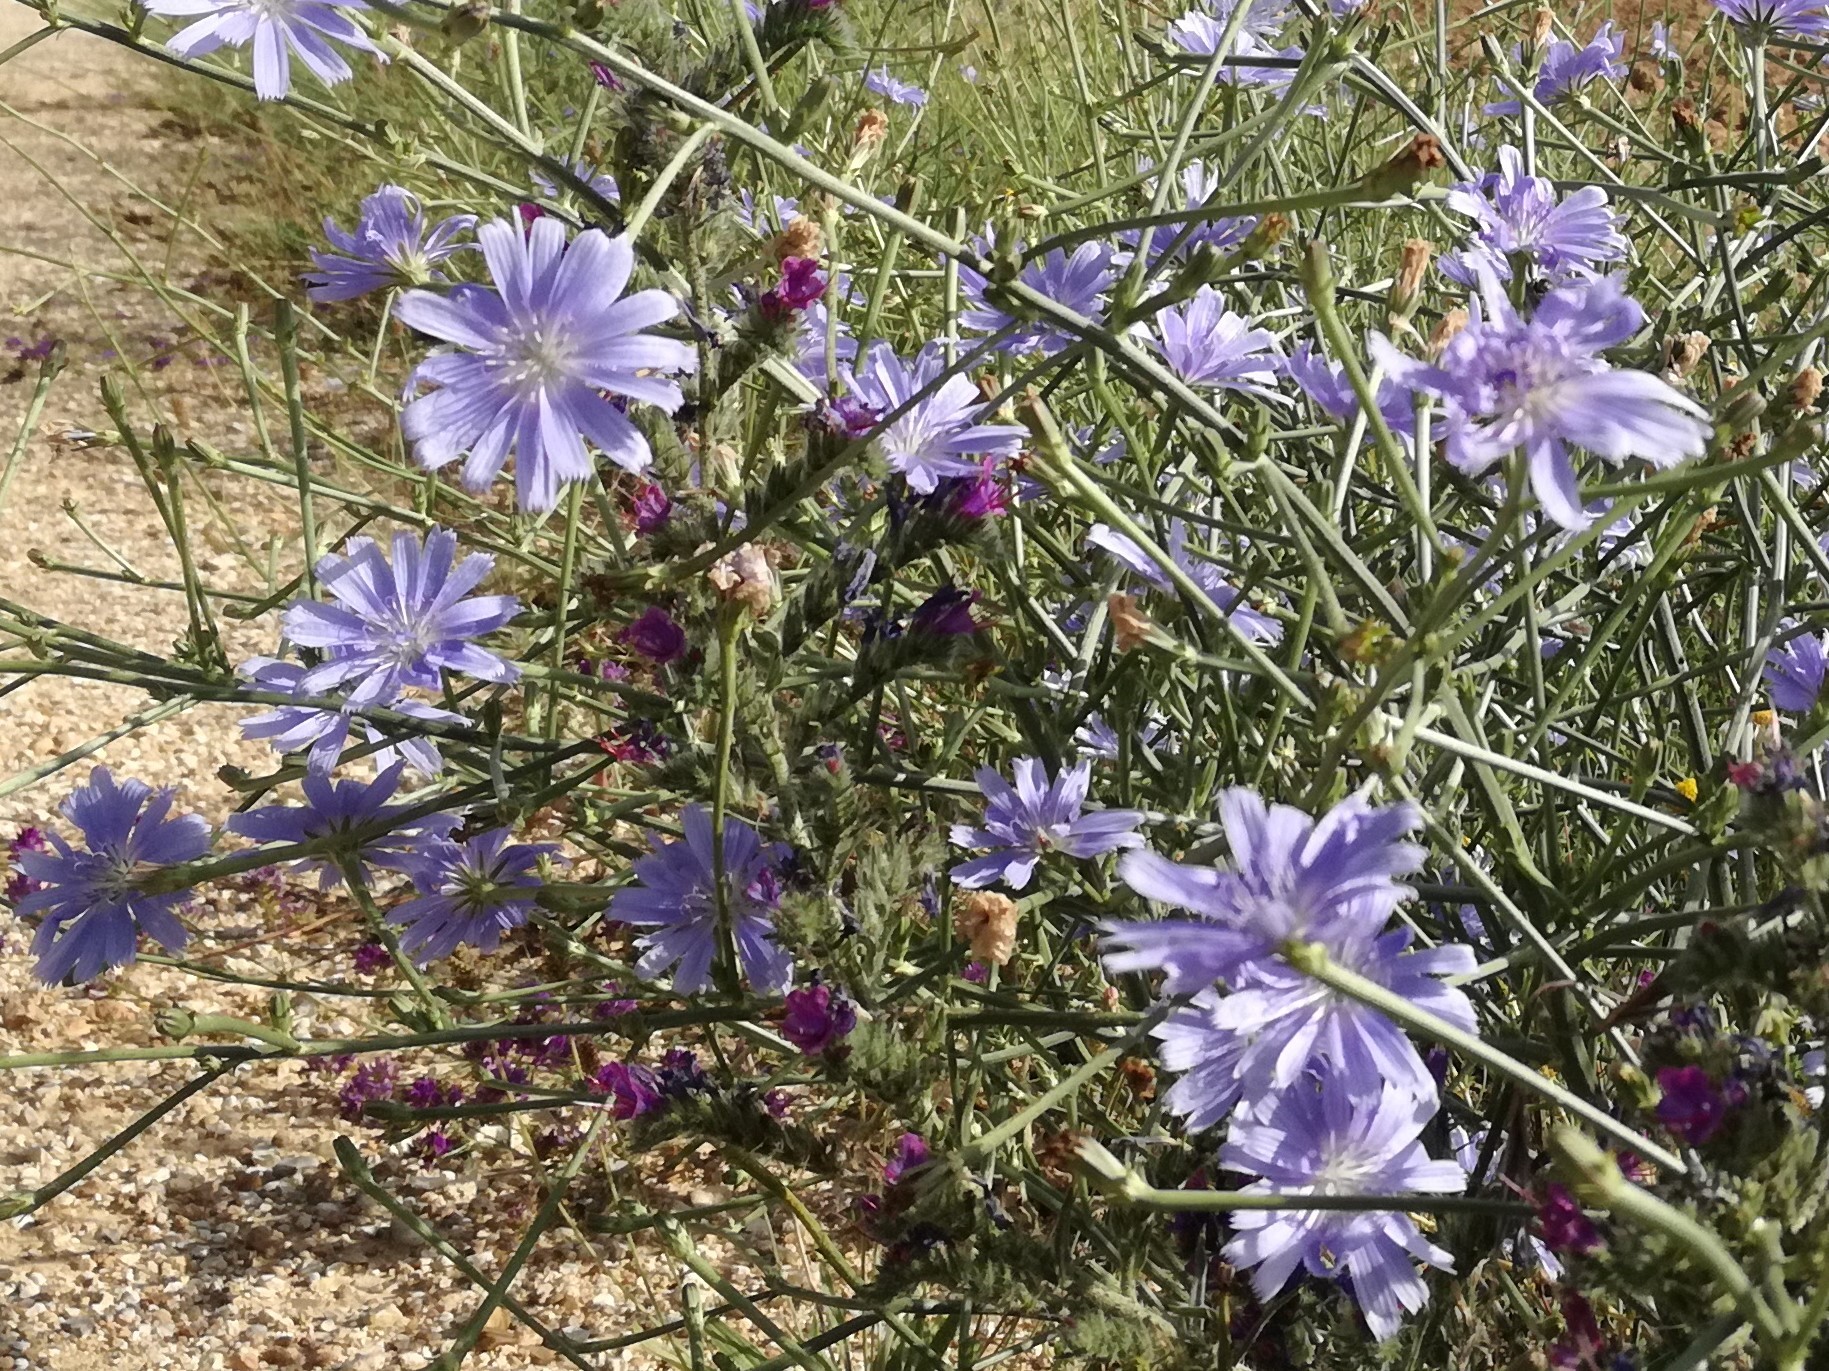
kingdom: Plantae
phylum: Tracheophyta
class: Magnoliopsida
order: Asterales
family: Asteraceae
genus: Cichorium
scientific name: Cichorium intybus
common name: Chicory
